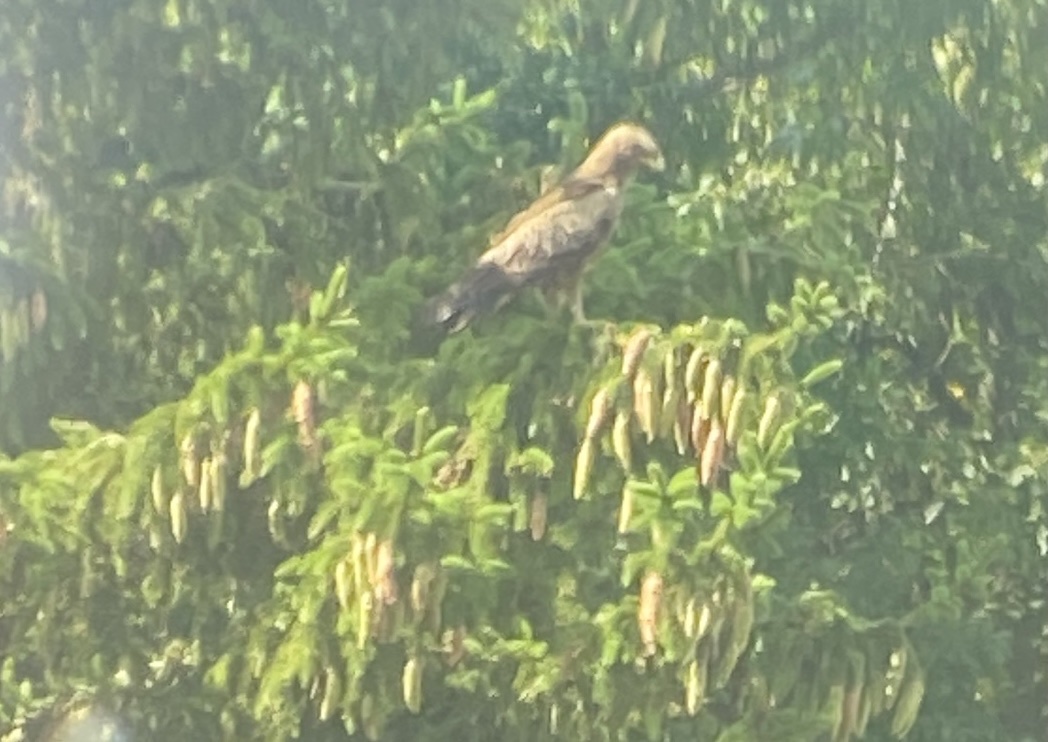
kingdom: Animalia
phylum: Chordata
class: Aves
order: Accipitriformes
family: Accipitridae
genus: Aquila
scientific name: Aquila pomarina
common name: Lesser spotted eagle
